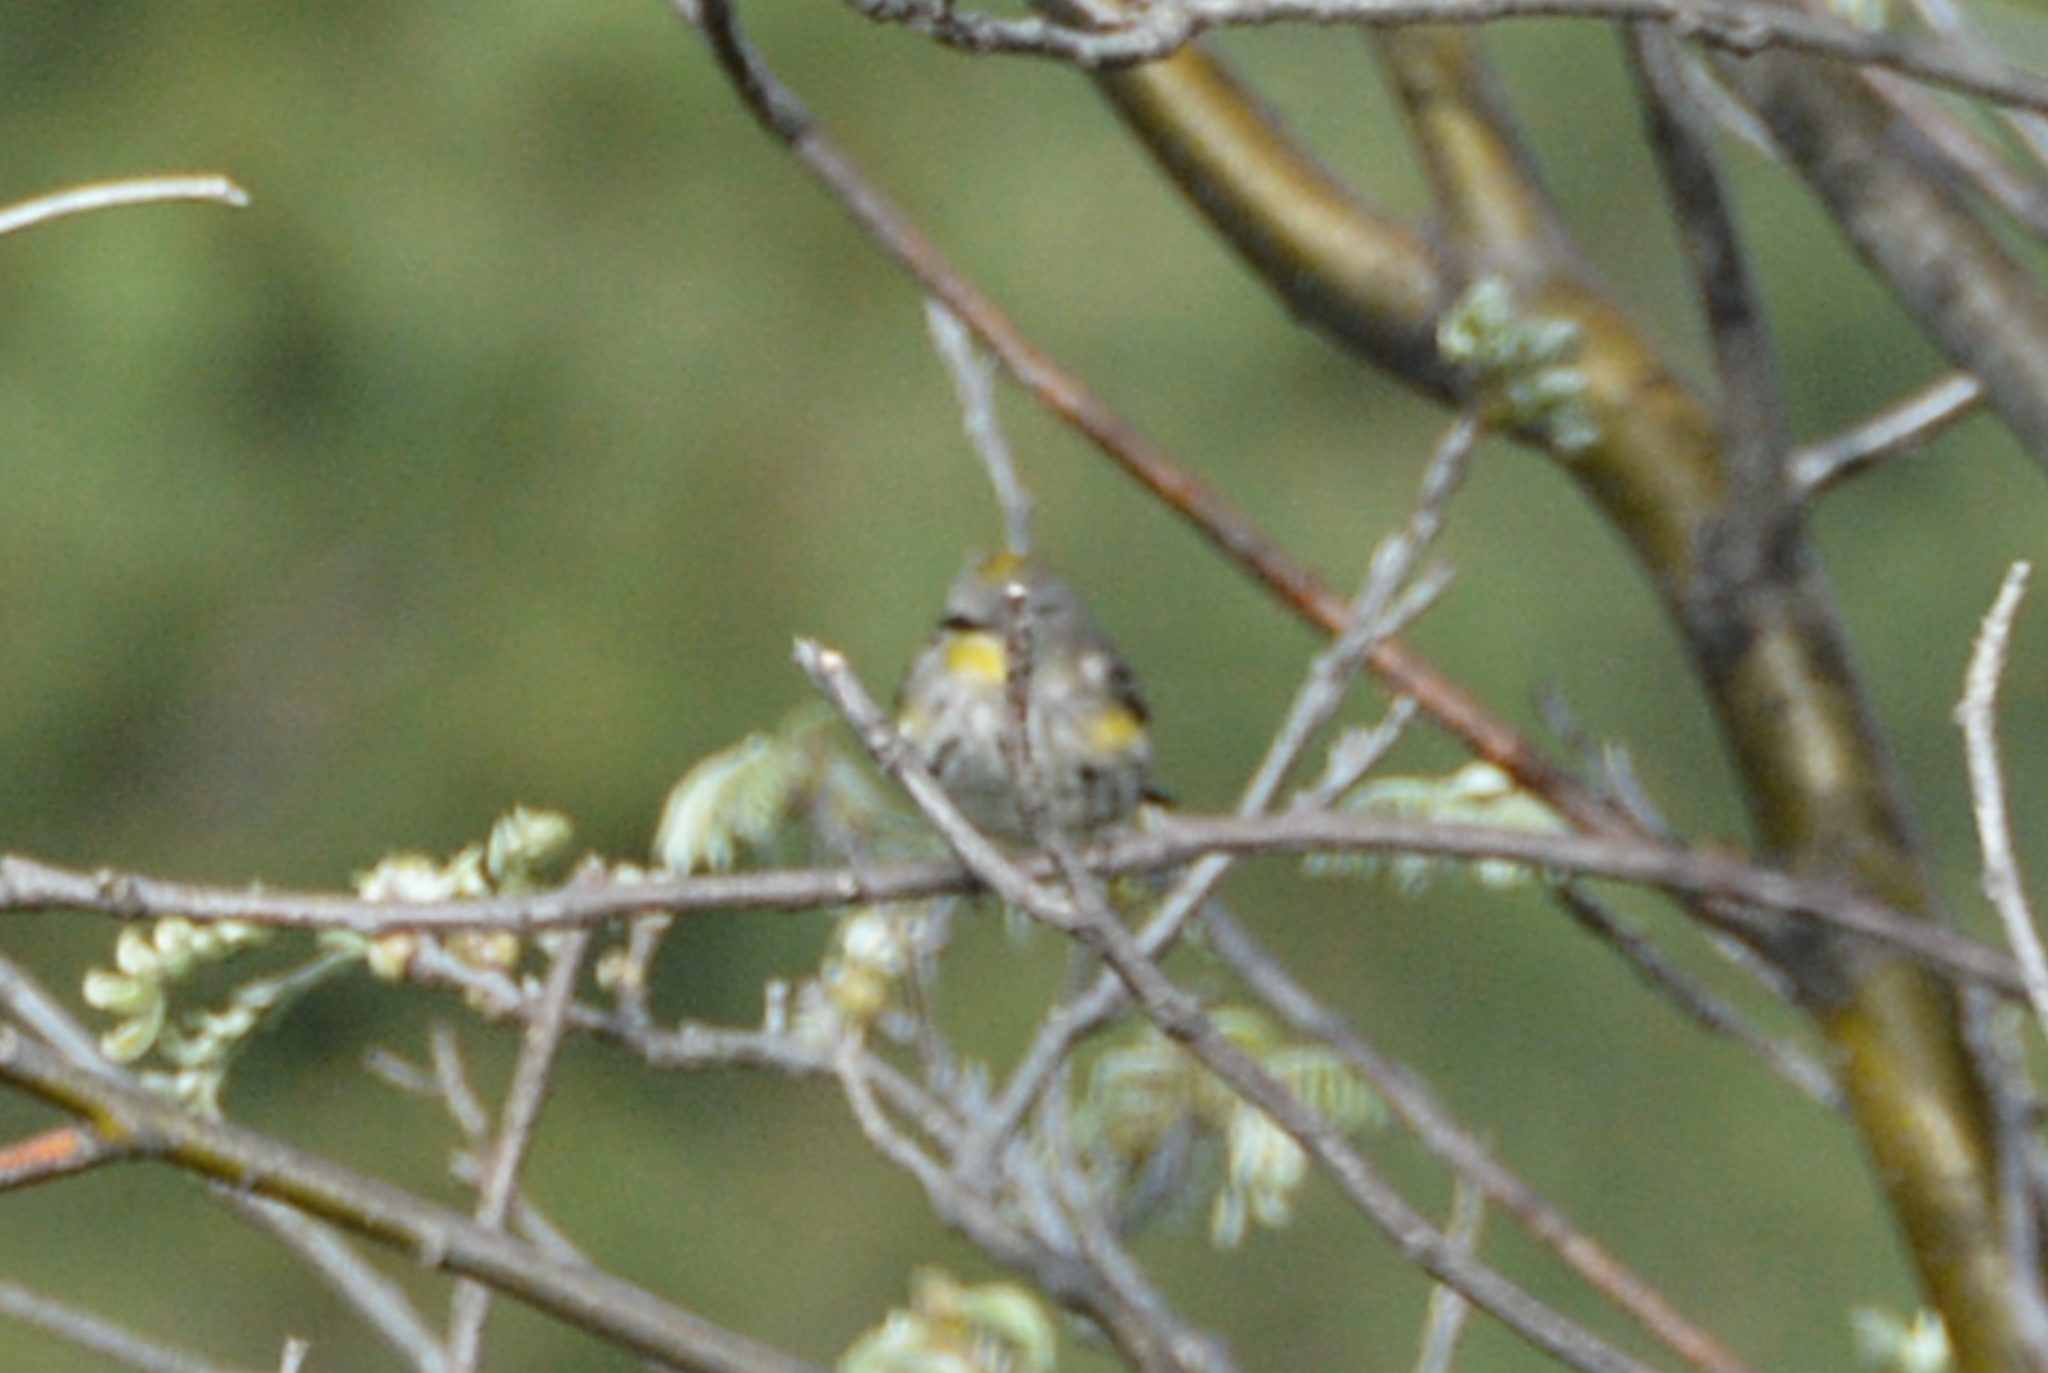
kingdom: Animalia
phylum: Chordata
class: Aves
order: Passeriformes
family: Parulidae
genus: Setophaga
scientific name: Setophaga auduboni
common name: Audubon's warbler
